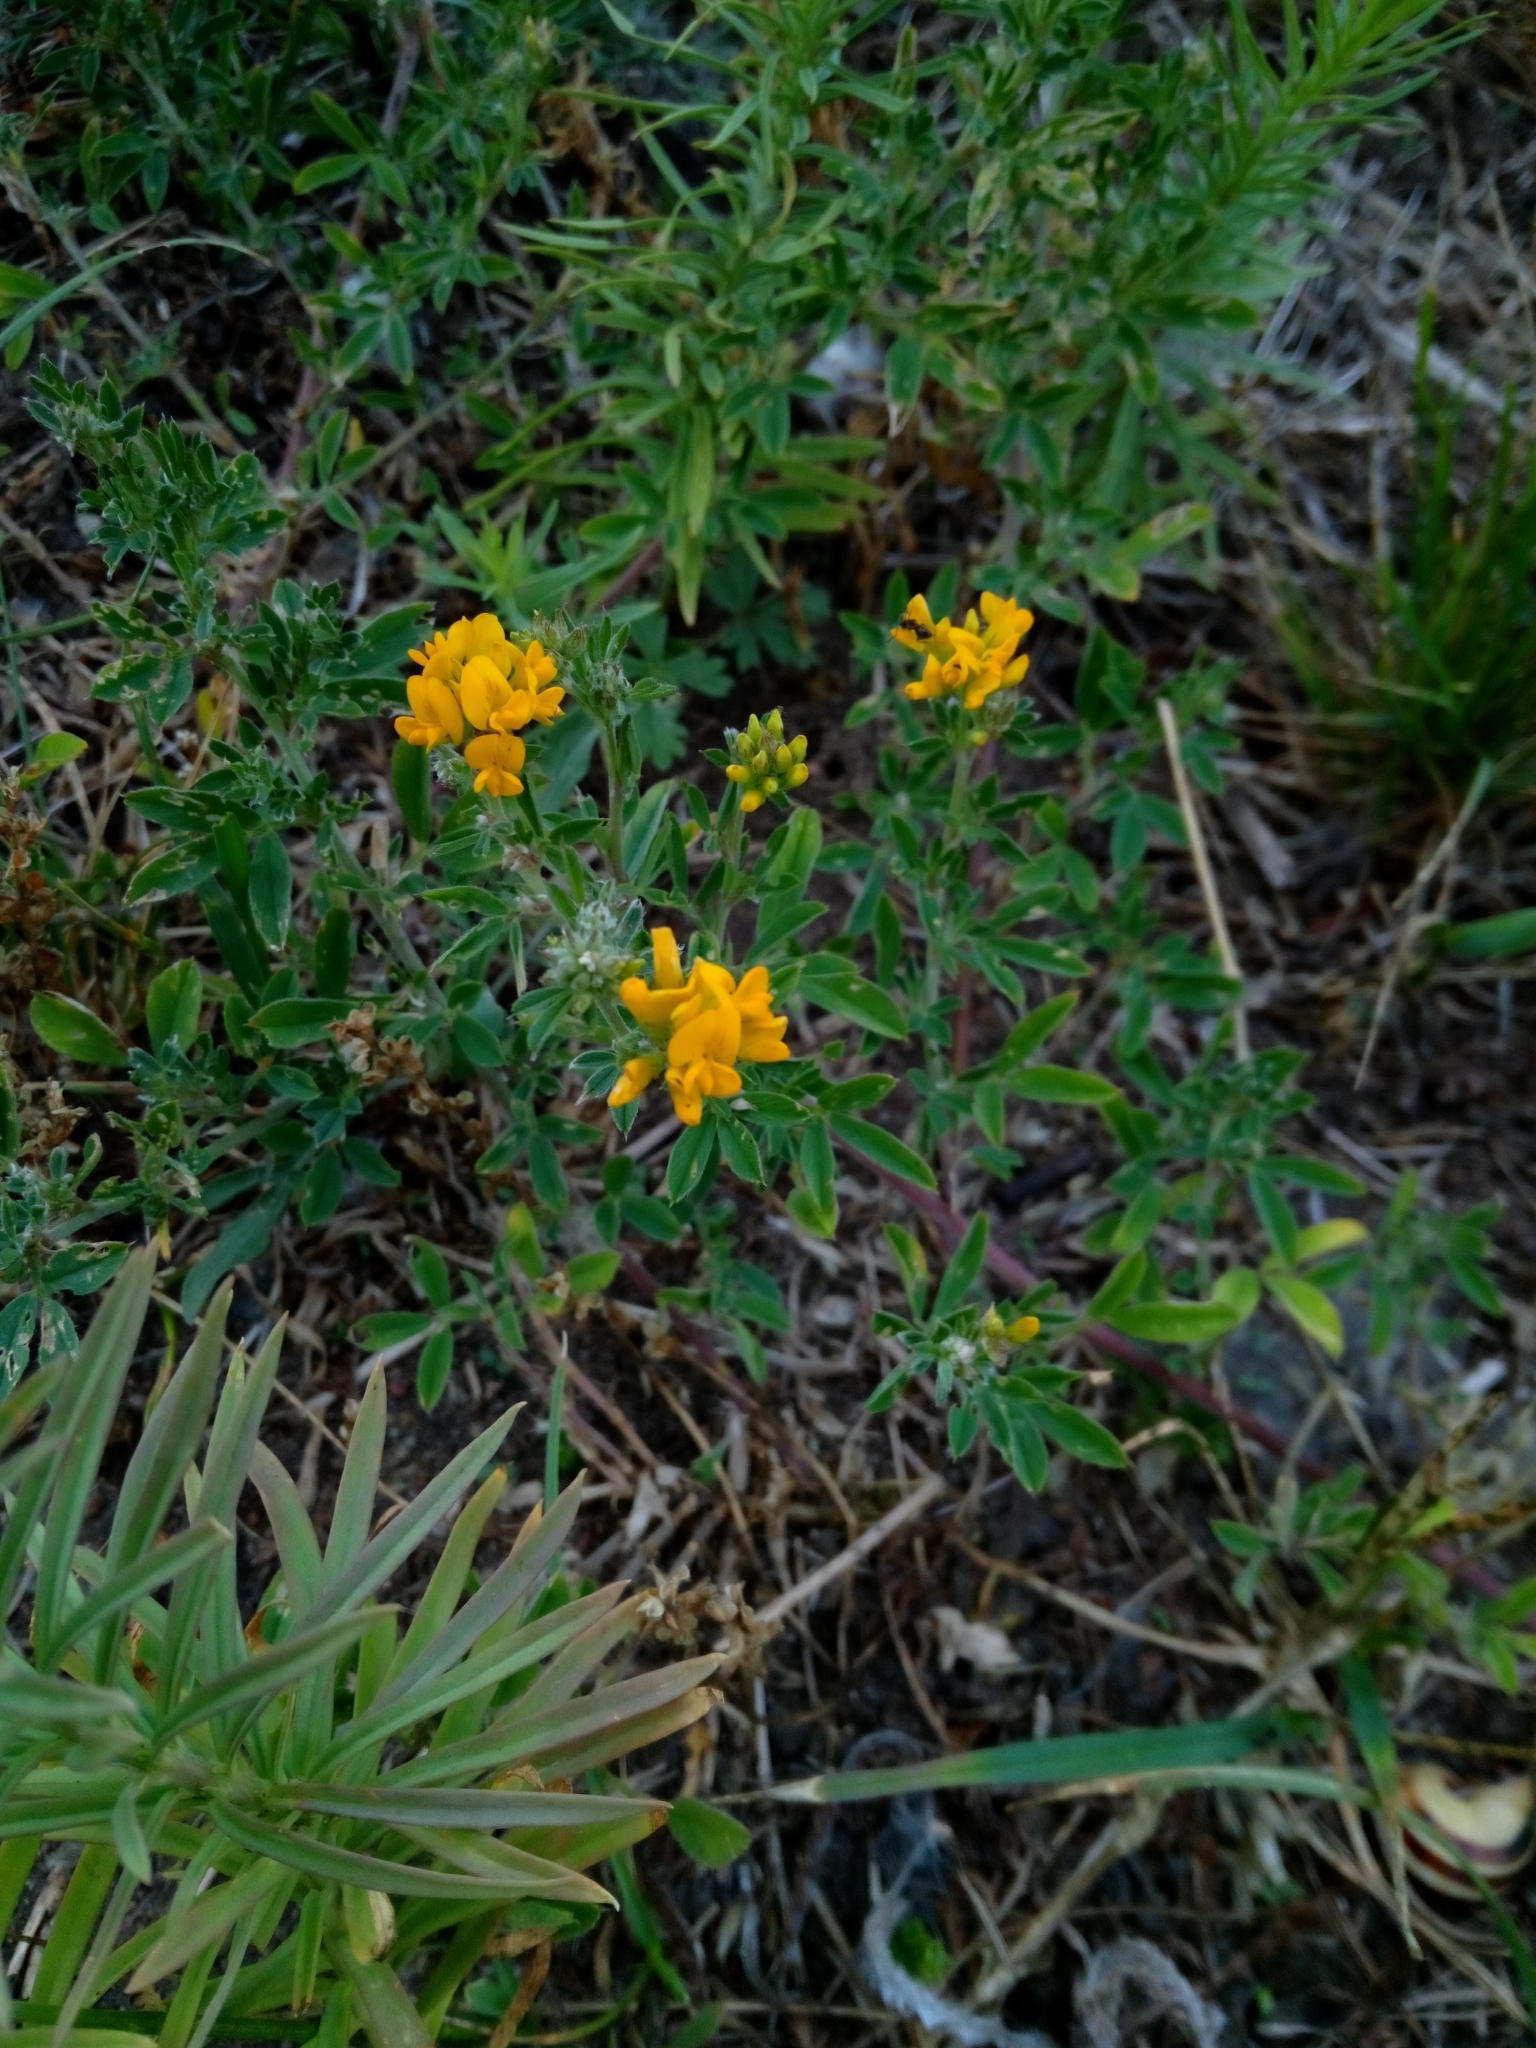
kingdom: Plantae
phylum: Tracheophyta
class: Magnoliopsida
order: Fabales
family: Fabaceae
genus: Medicago
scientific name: Medicago falcata
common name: Sickle medick
